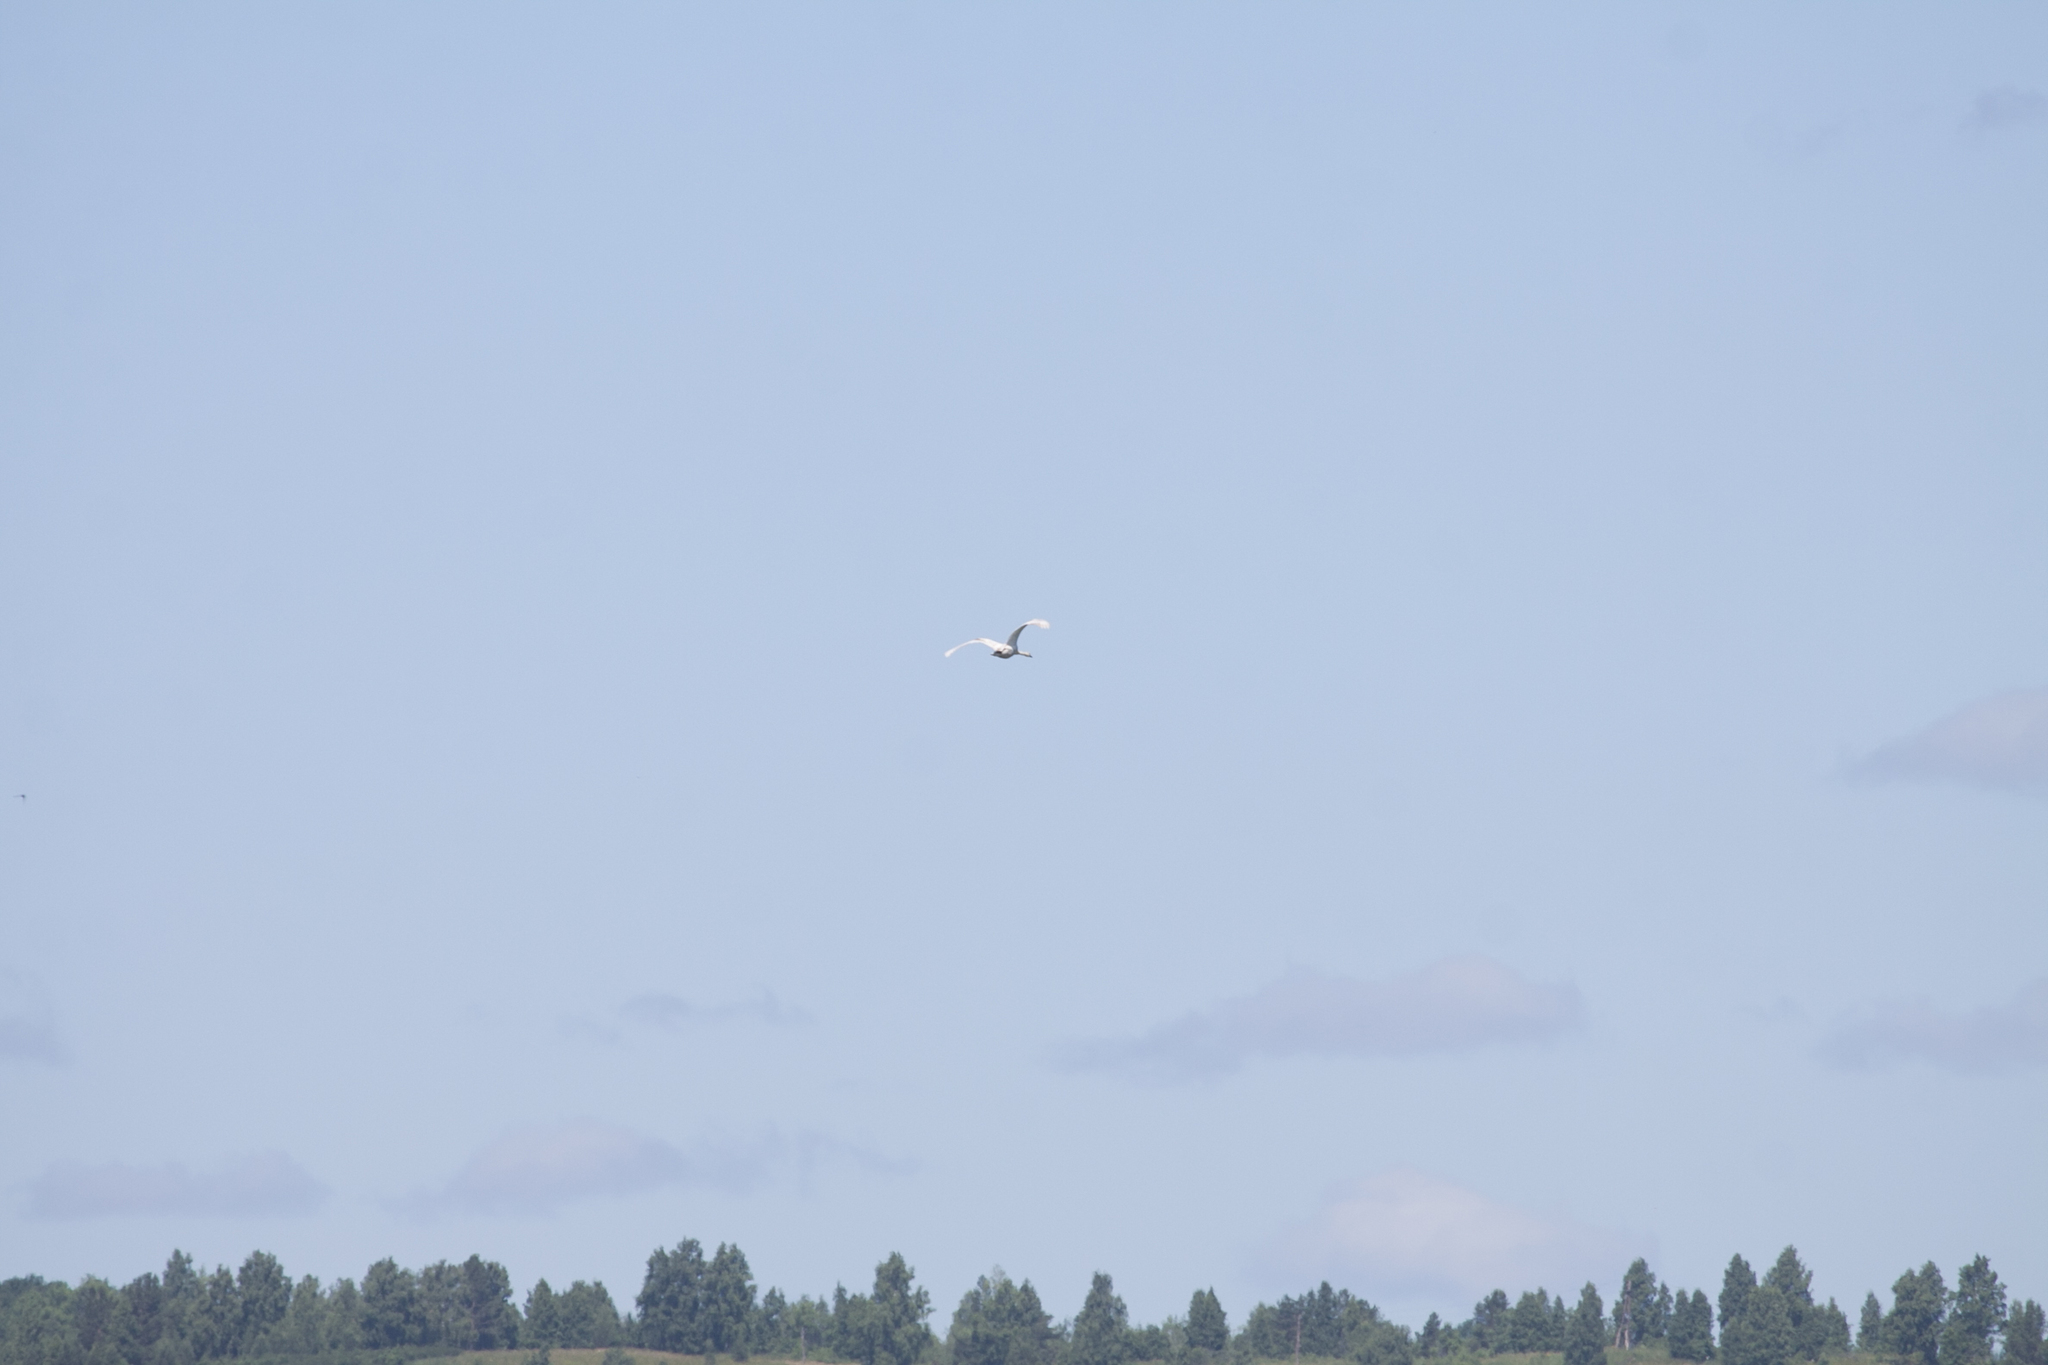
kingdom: Animalia
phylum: Chordata
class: Aves
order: Anseriformes
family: Anatidae
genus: Cygnus
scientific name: Cygnus olor
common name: Mute swan
